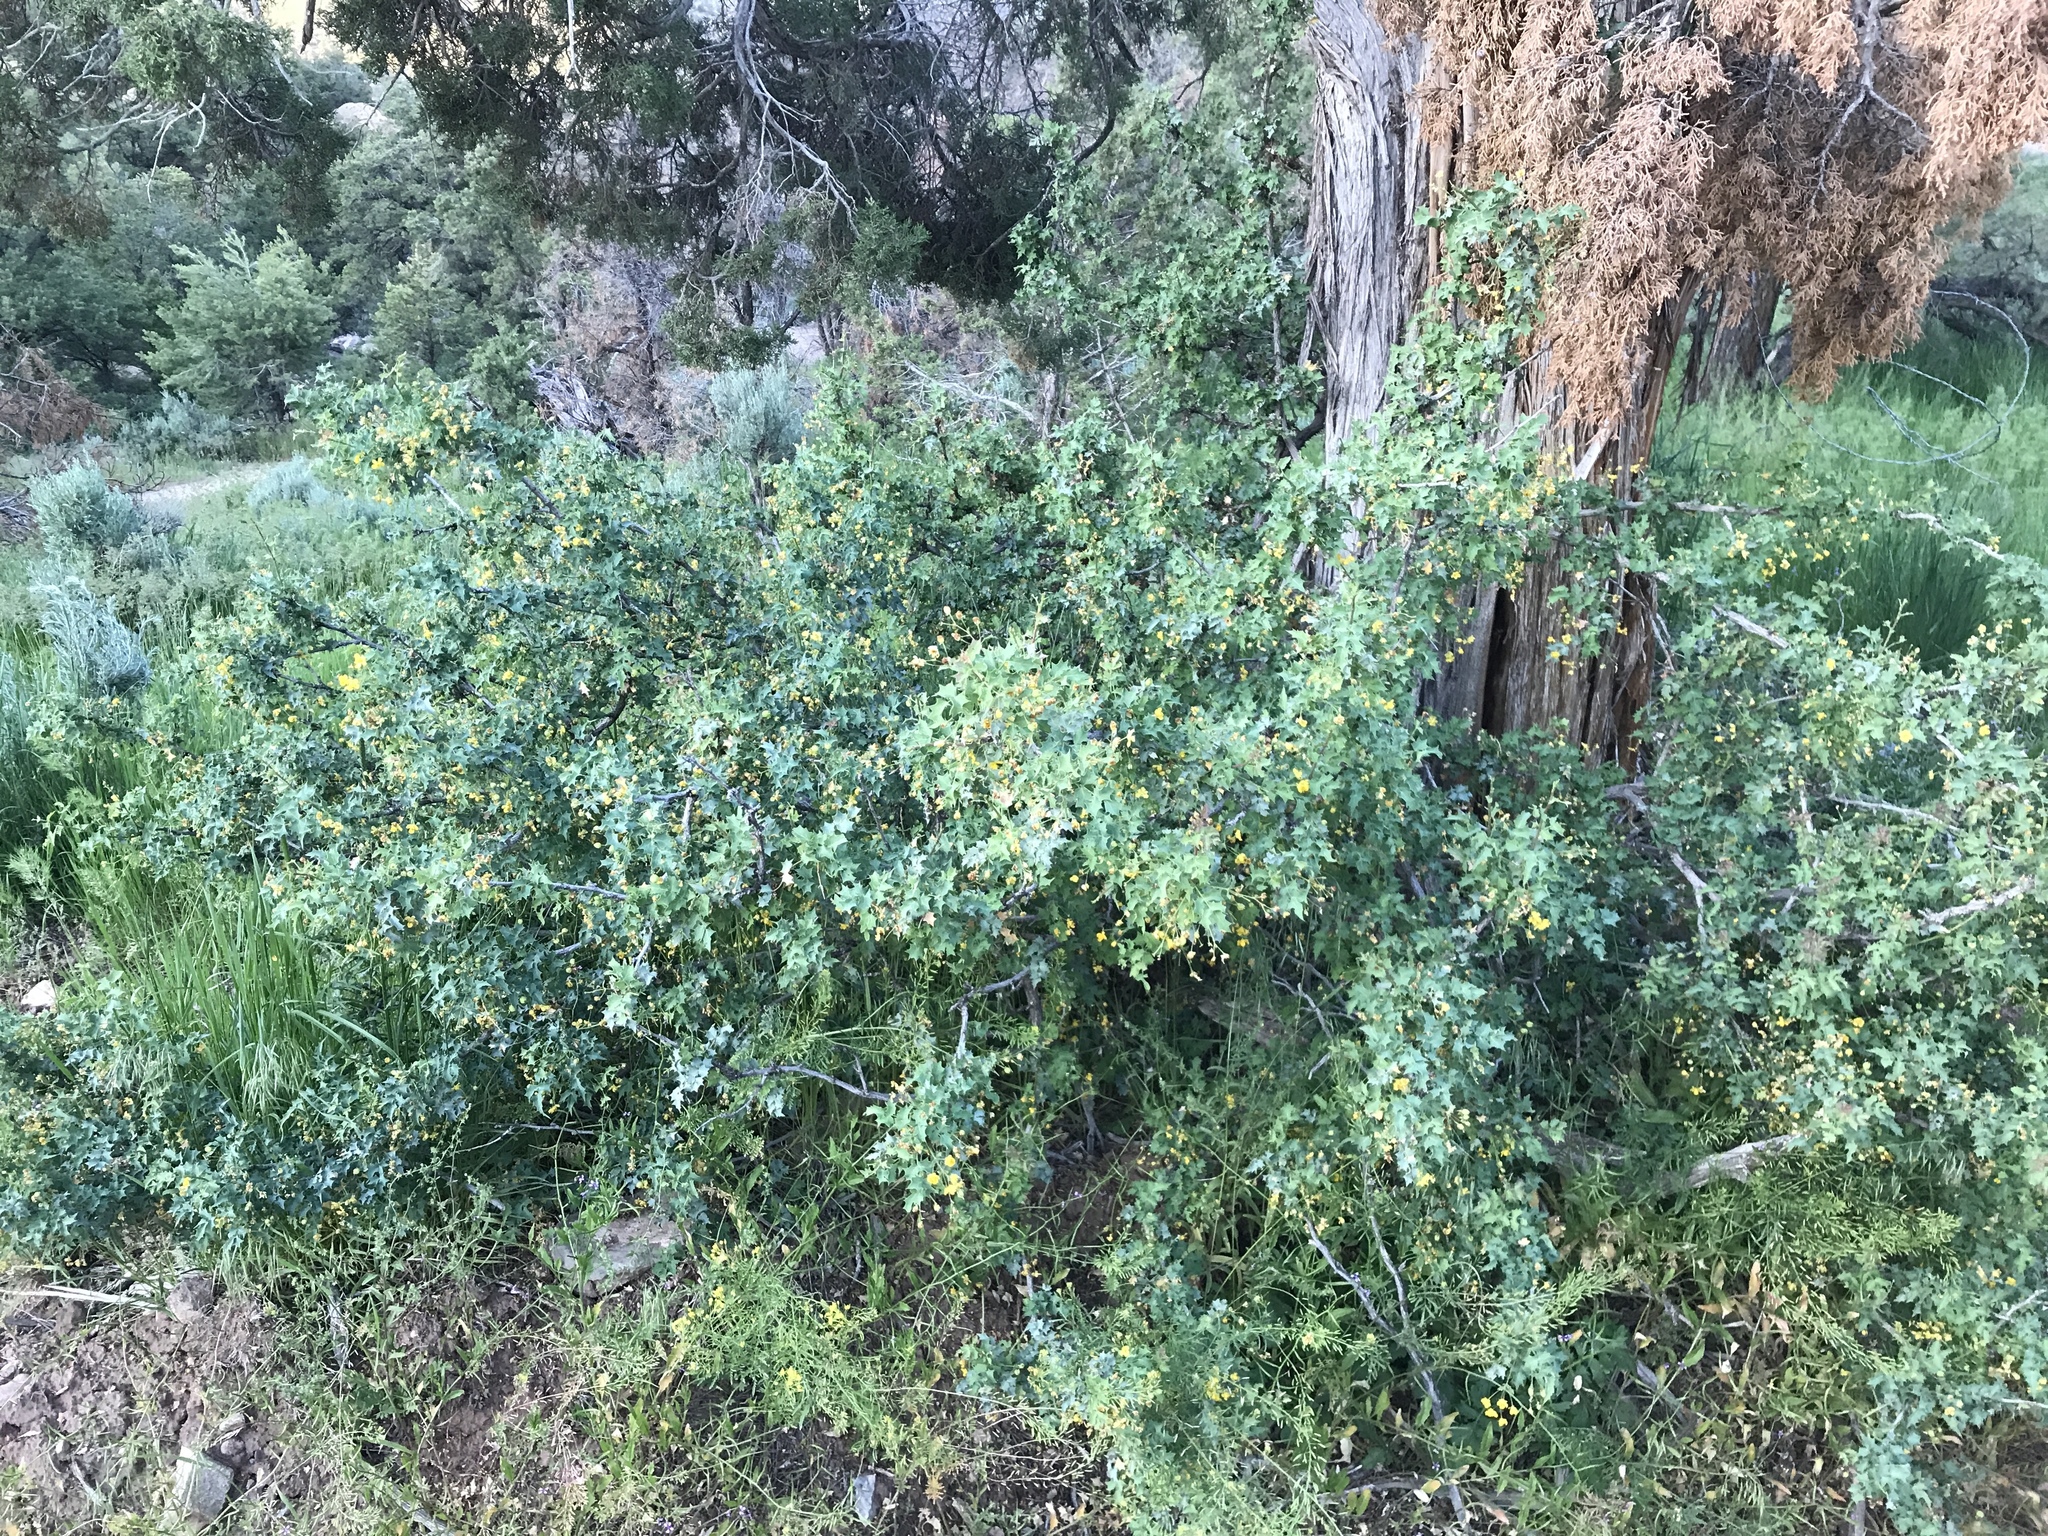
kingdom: Plantae
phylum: Tracheophyta
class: Magnoliopsida
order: Ranunculales
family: Berberidaceae
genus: Alloberberis
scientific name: Alloberberis fremontii
